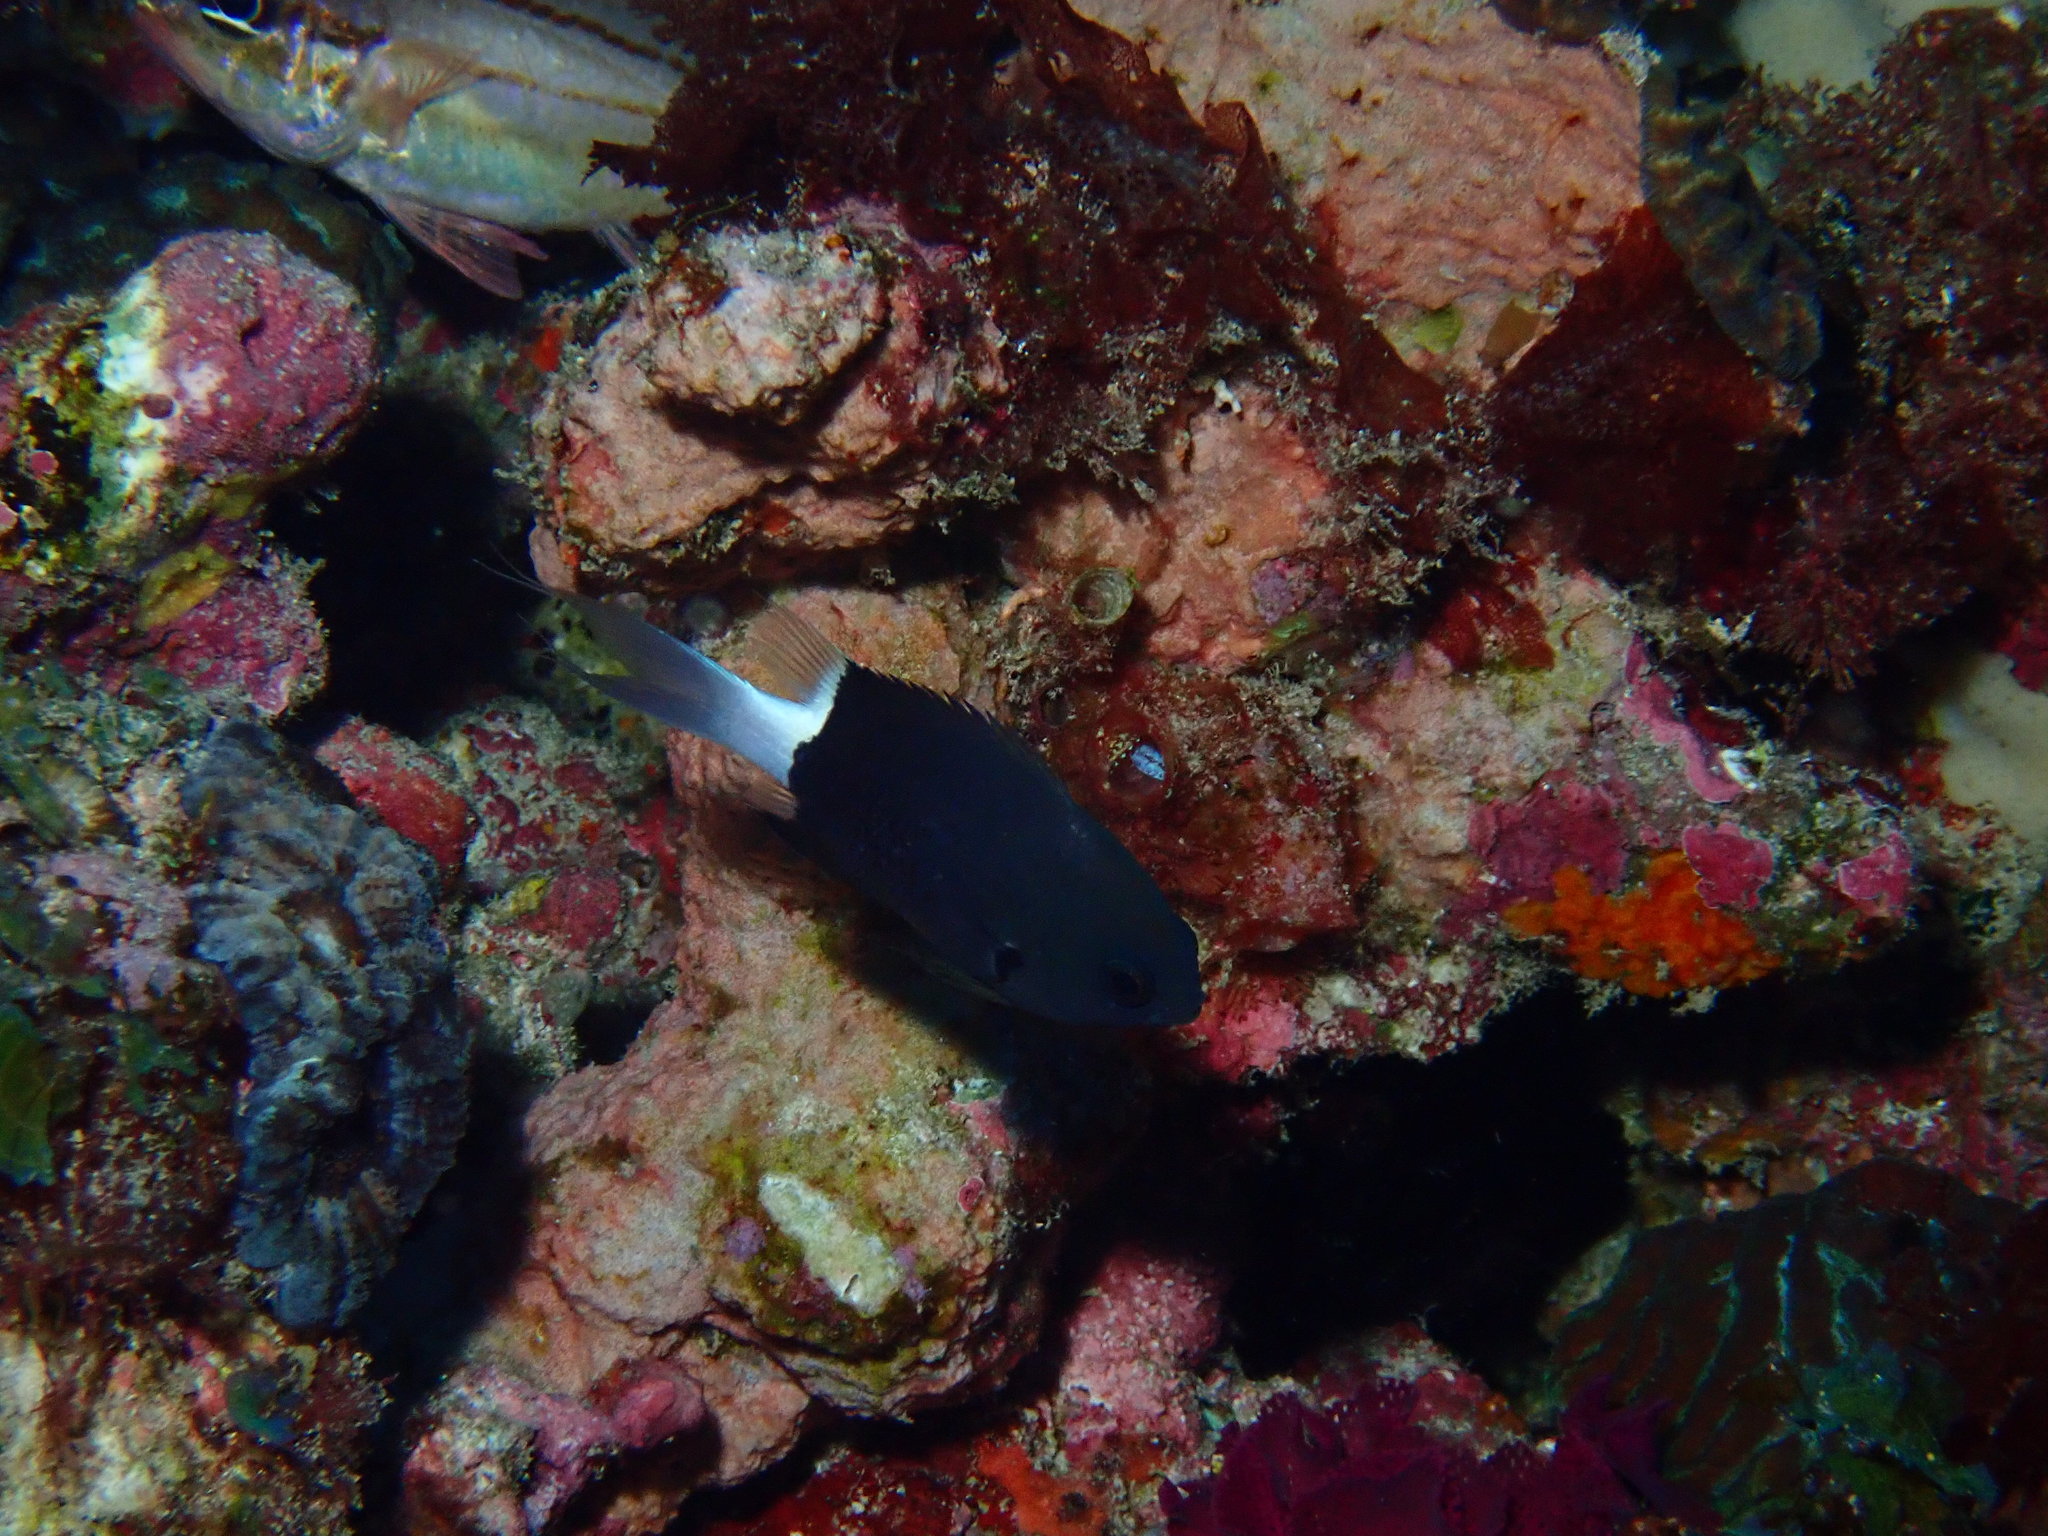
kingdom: Animalia
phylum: Chordata
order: Perciformes
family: Pomacentridae
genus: Pycnochromis
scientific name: Pycnochromis margaritifer
